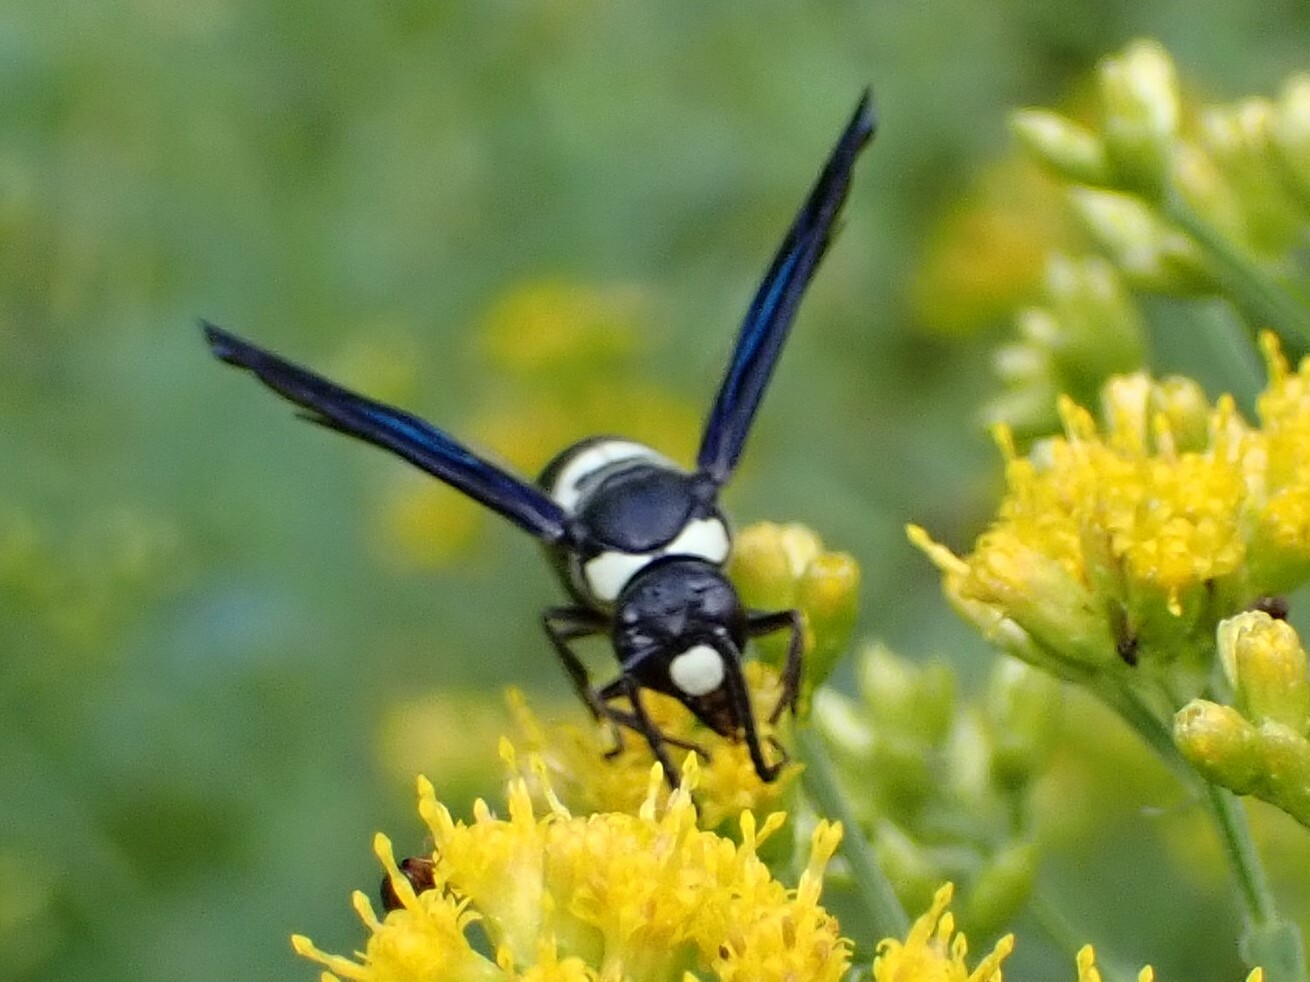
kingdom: Animalia
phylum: Arthropoda
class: Insecta
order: Hymenoptera
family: Eumenidae
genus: Monobia
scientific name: Monobia quadridens
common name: Four-toothed mason wasp
